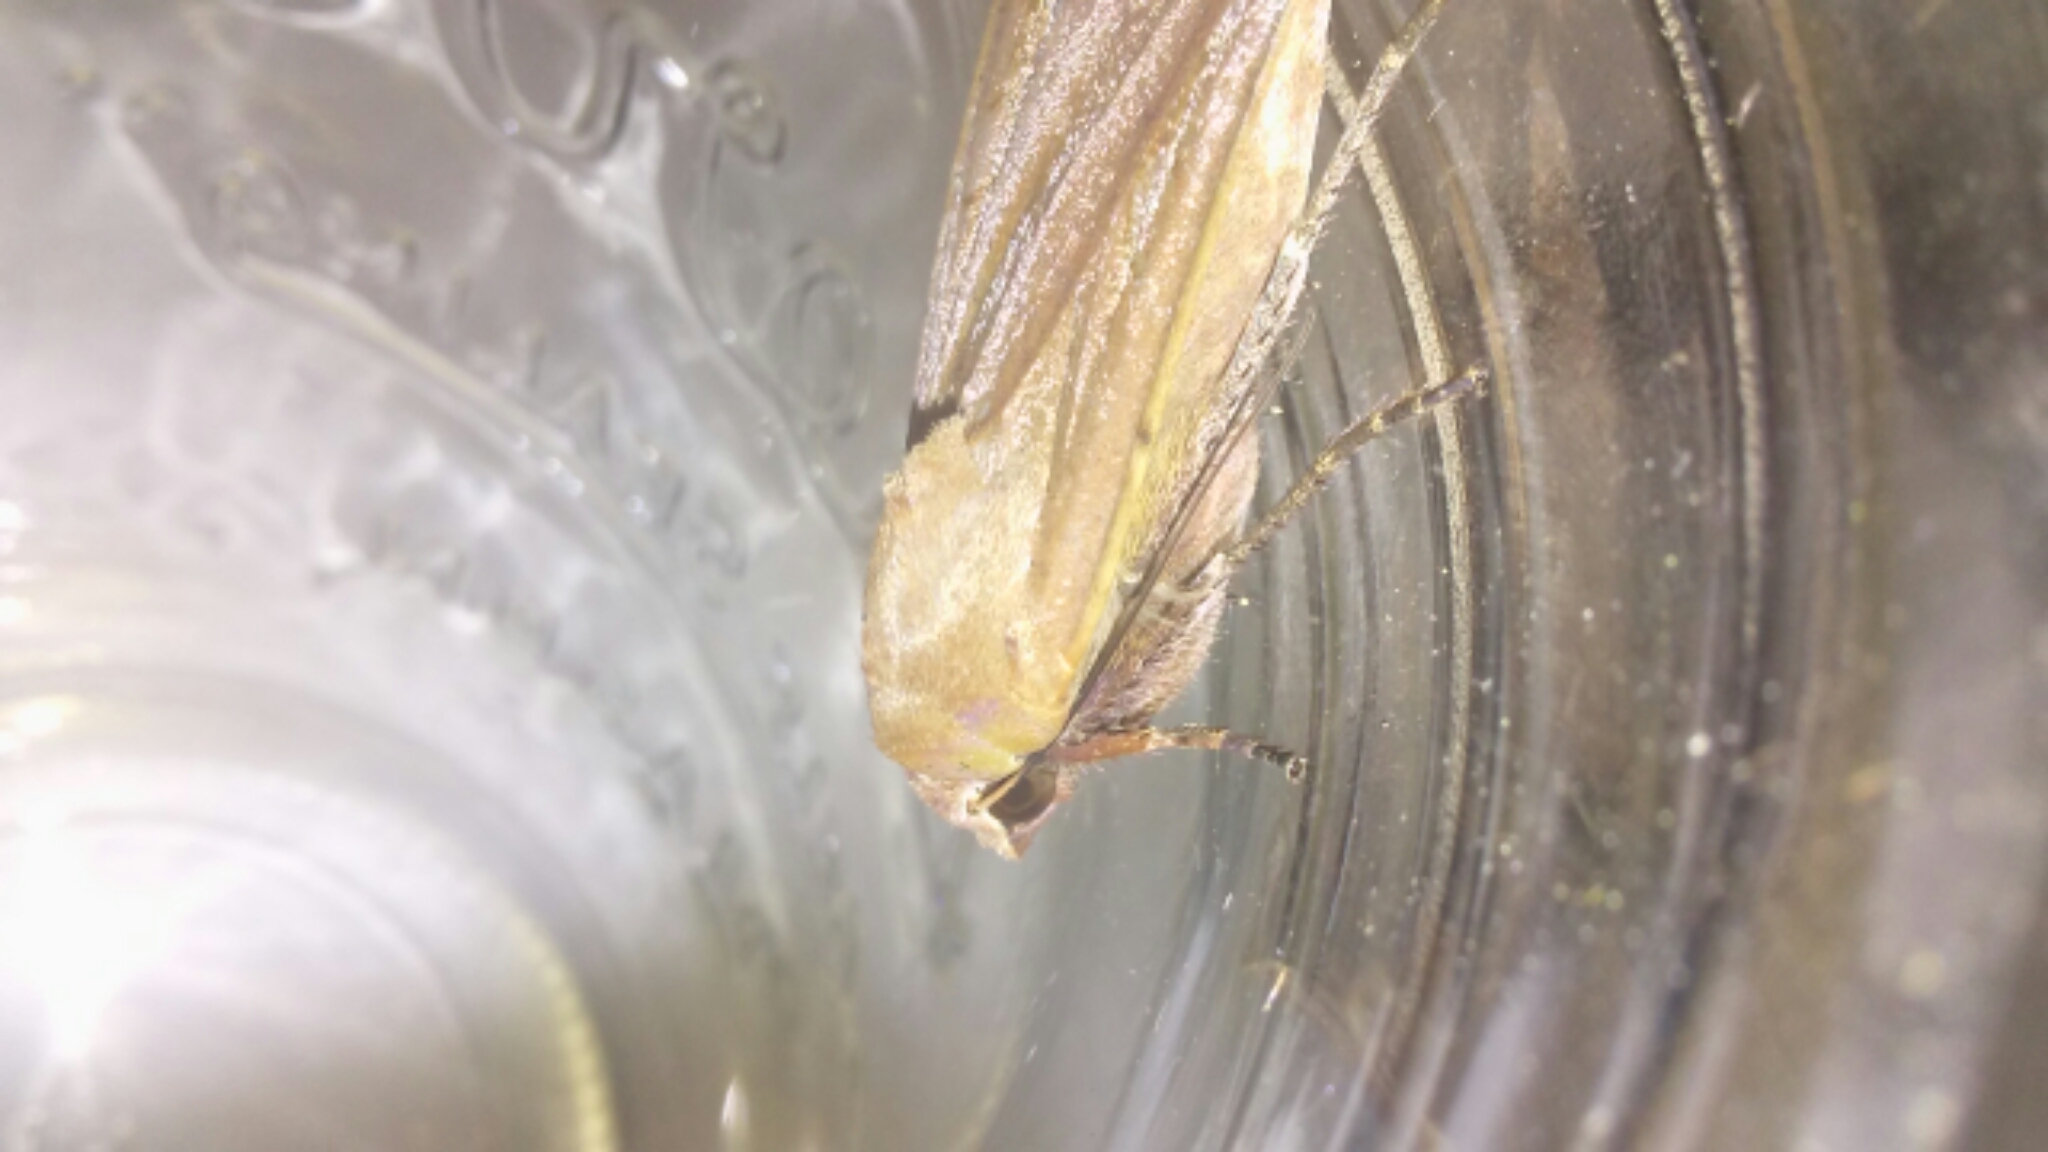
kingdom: Animalia
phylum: Arthropoda
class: Insecta
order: Lepidoptera
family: Noctuidae
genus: Noctua
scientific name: Noctua pronuba
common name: Large yellow underwing
